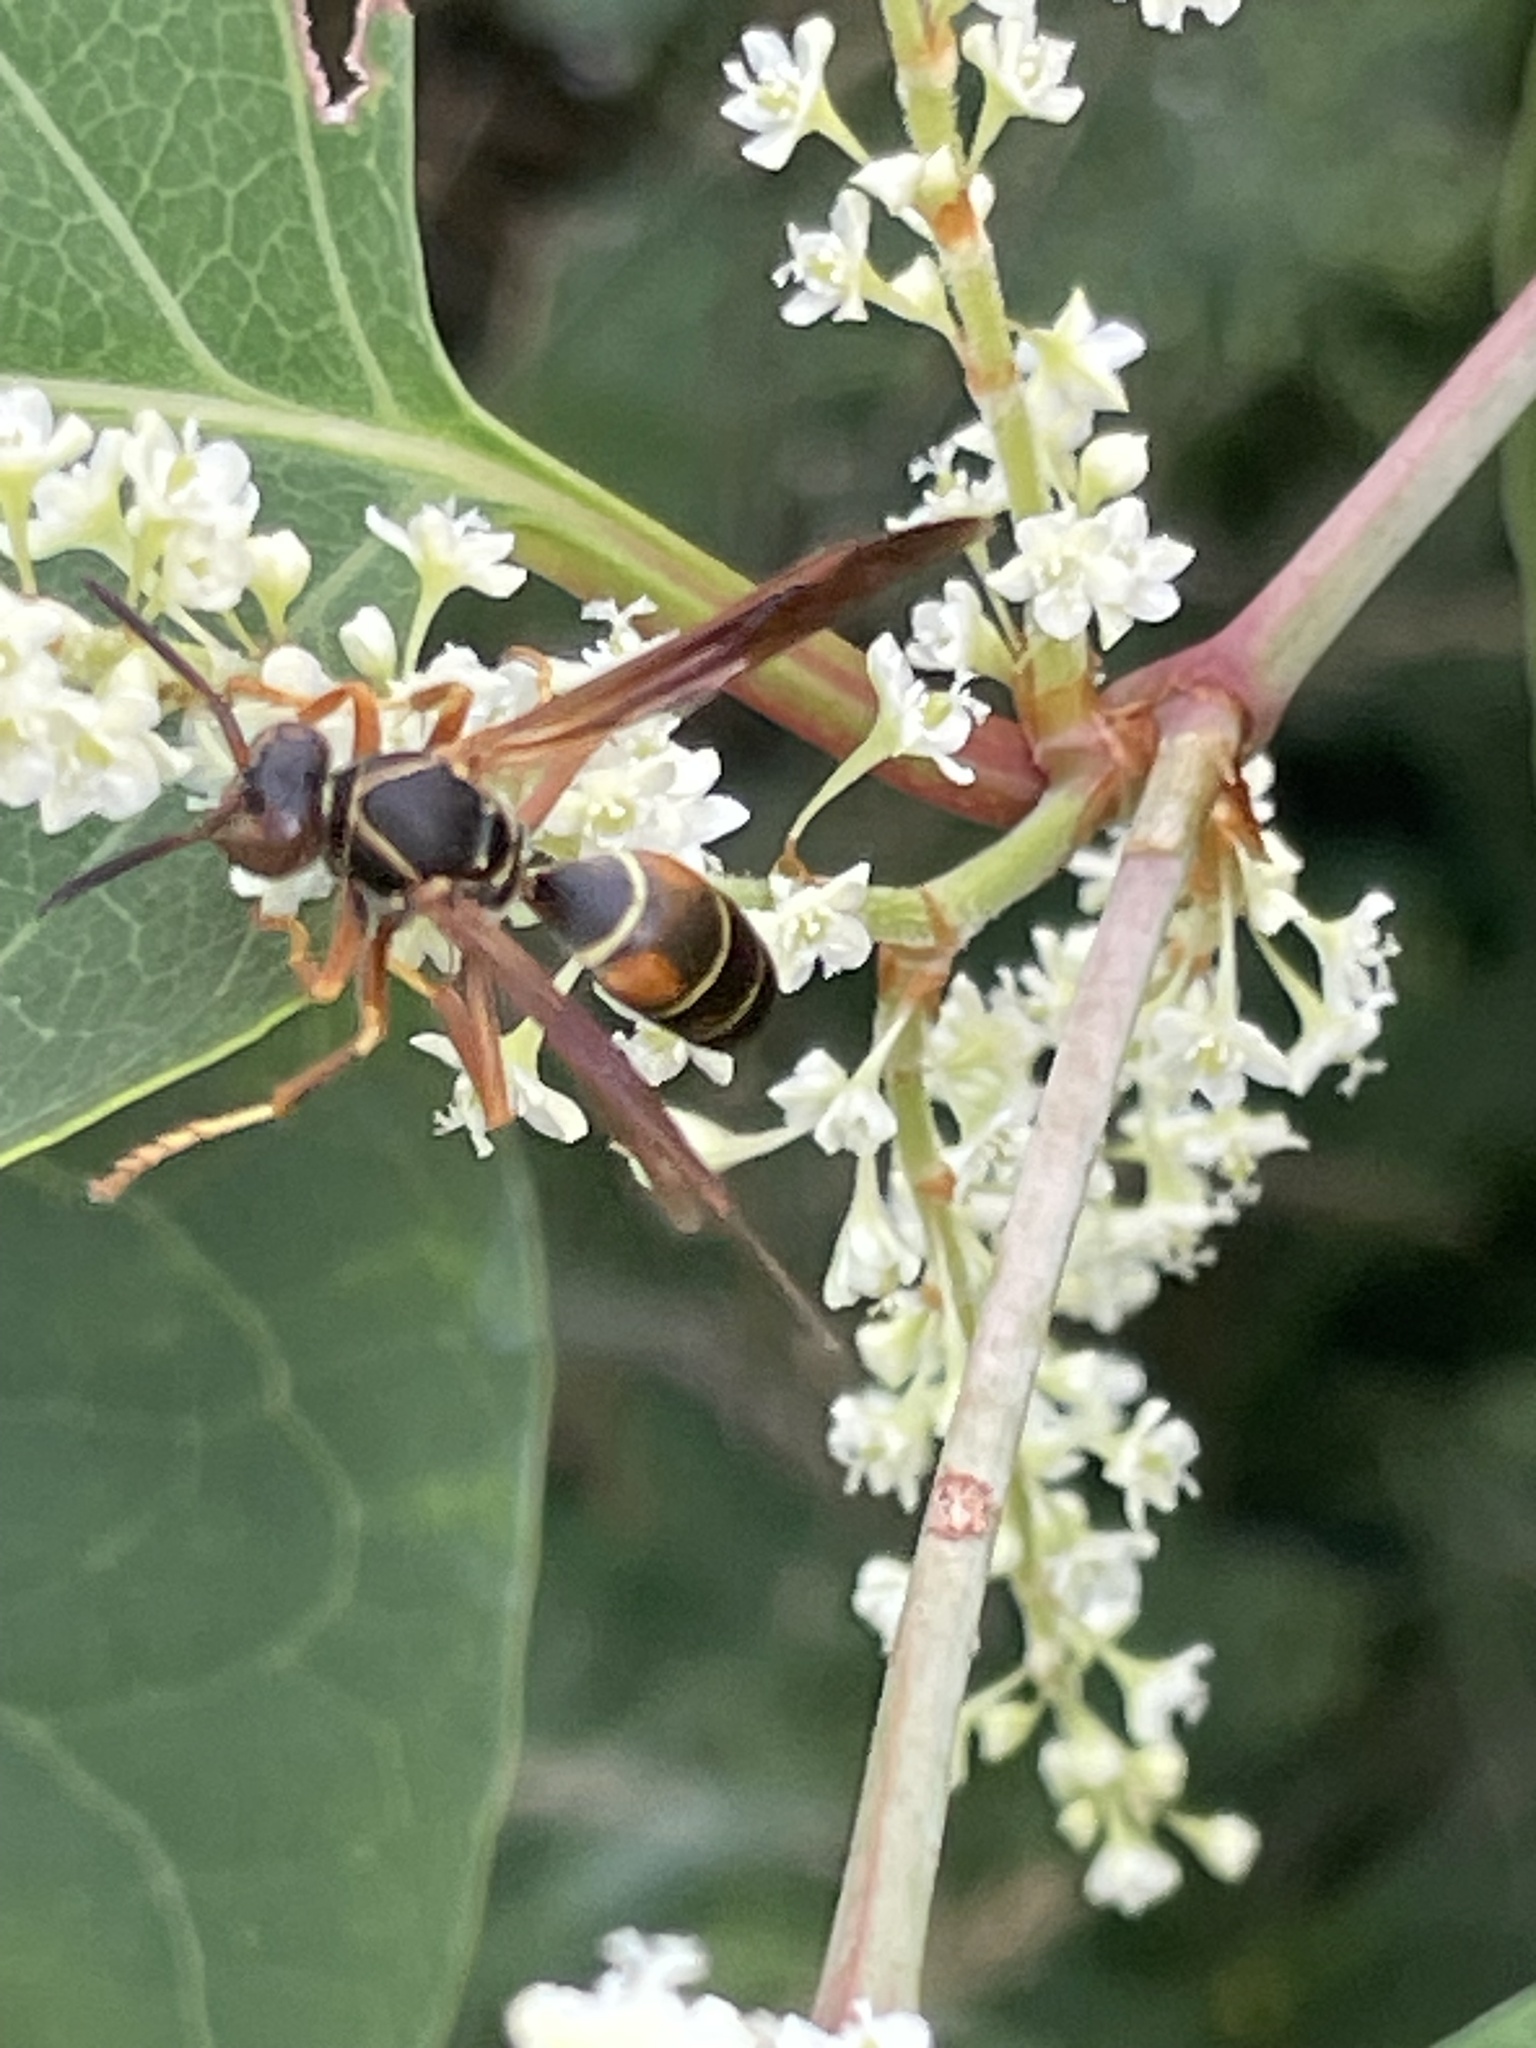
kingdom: Animalia
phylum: Arthropoda
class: Insecta
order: Hymenoptera
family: Eumenidae
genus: Polistes
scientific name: Polistes fuscatus
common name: Dark paper wasp
